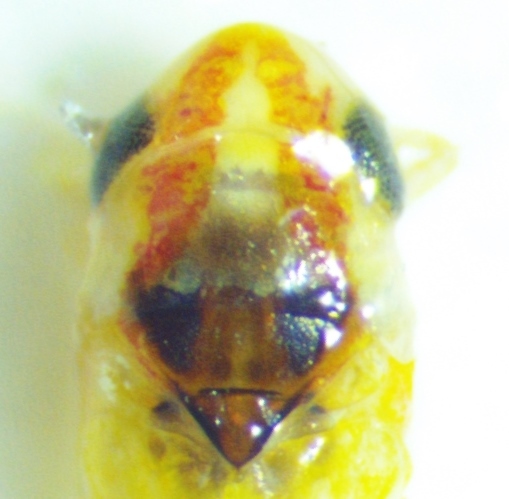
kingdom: Animalia
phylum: Arthropoda
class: Insecta
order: Hemiptera
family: Cicadellidae
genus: Erythridula
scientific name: Erythridula noeva
